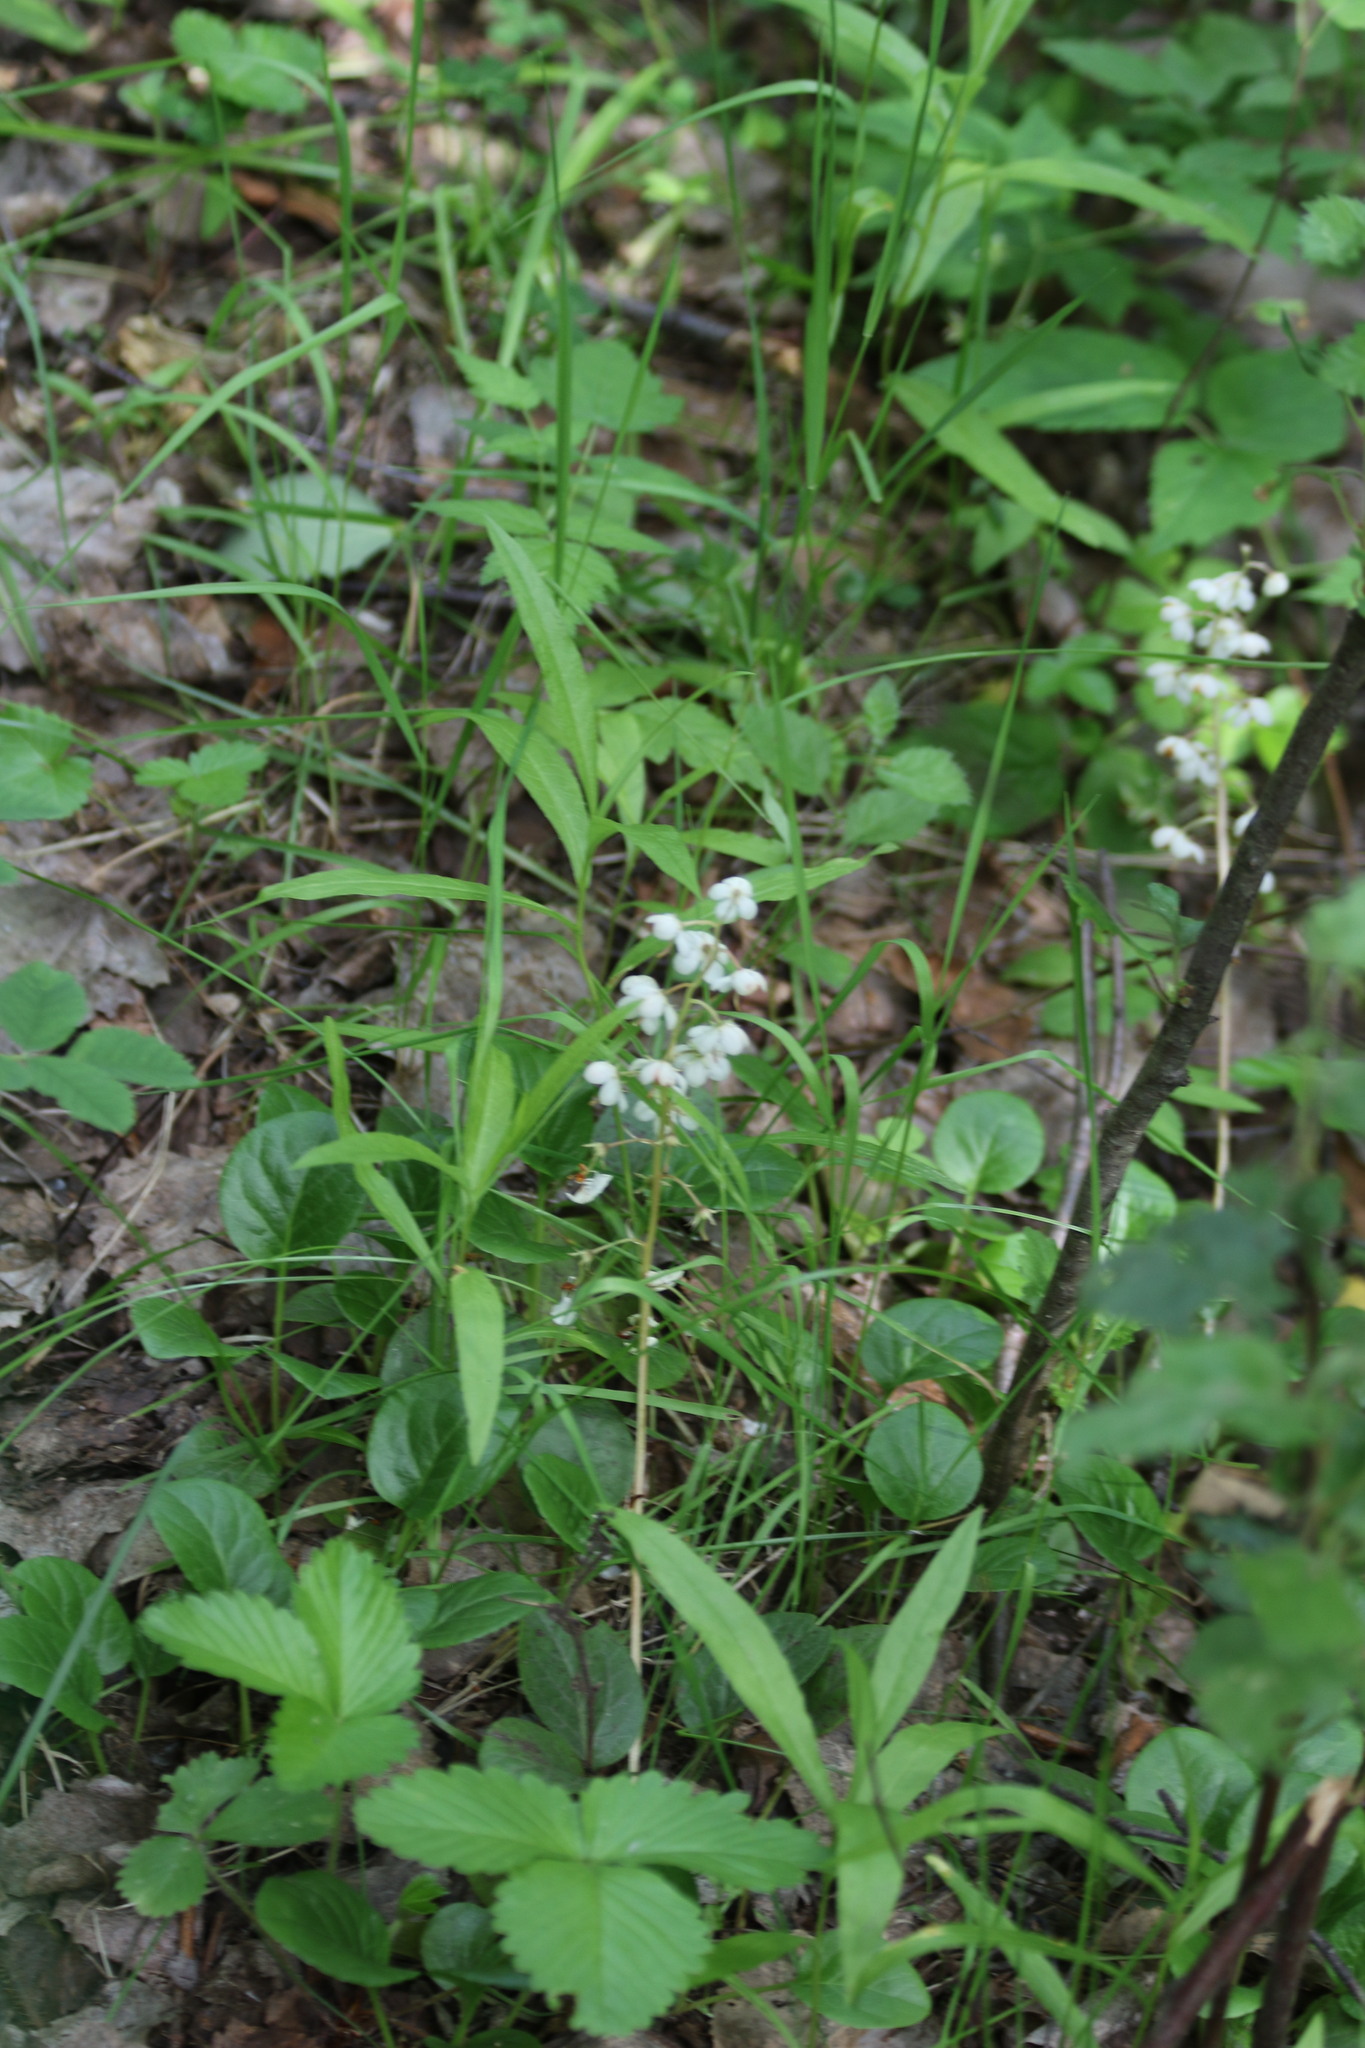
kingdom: Plantae
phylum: Tracheophyta
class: Magnoliopsida
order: Ericales
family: Ericaceae
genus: Pyrola
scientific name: Pyrola rotundifolia
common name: Round-leaved wintergreen
